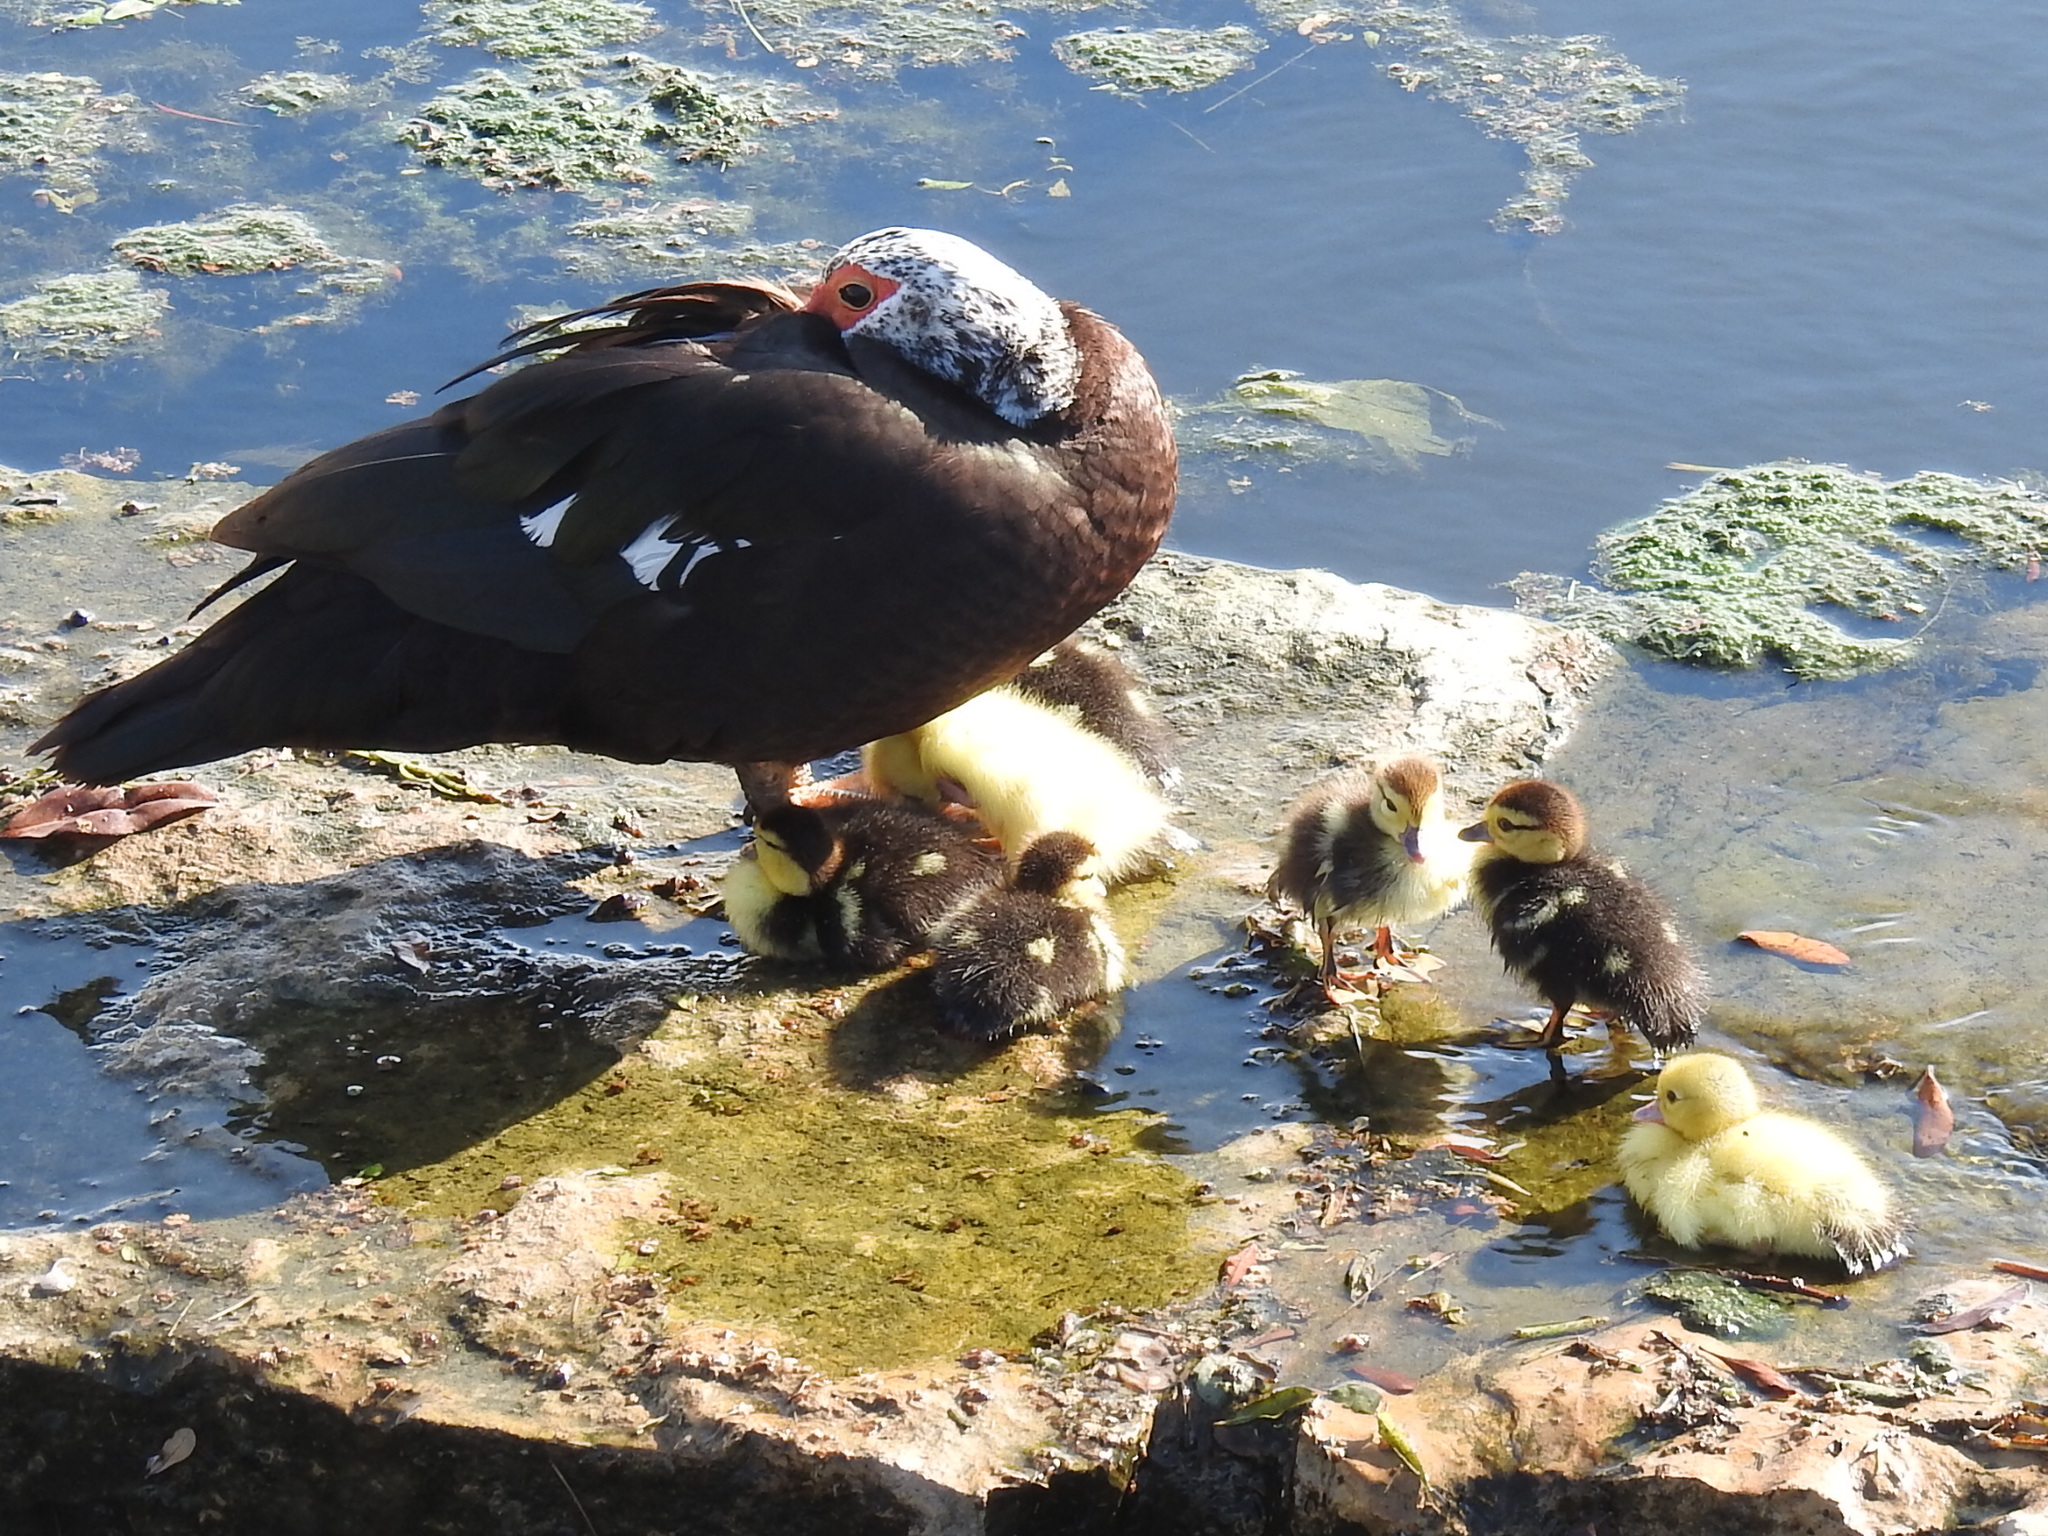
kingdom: Animalia
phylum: Chordata
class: Aves
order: Anseriformes
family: Anatidae
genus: Cairina
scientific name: Cairina moschata
